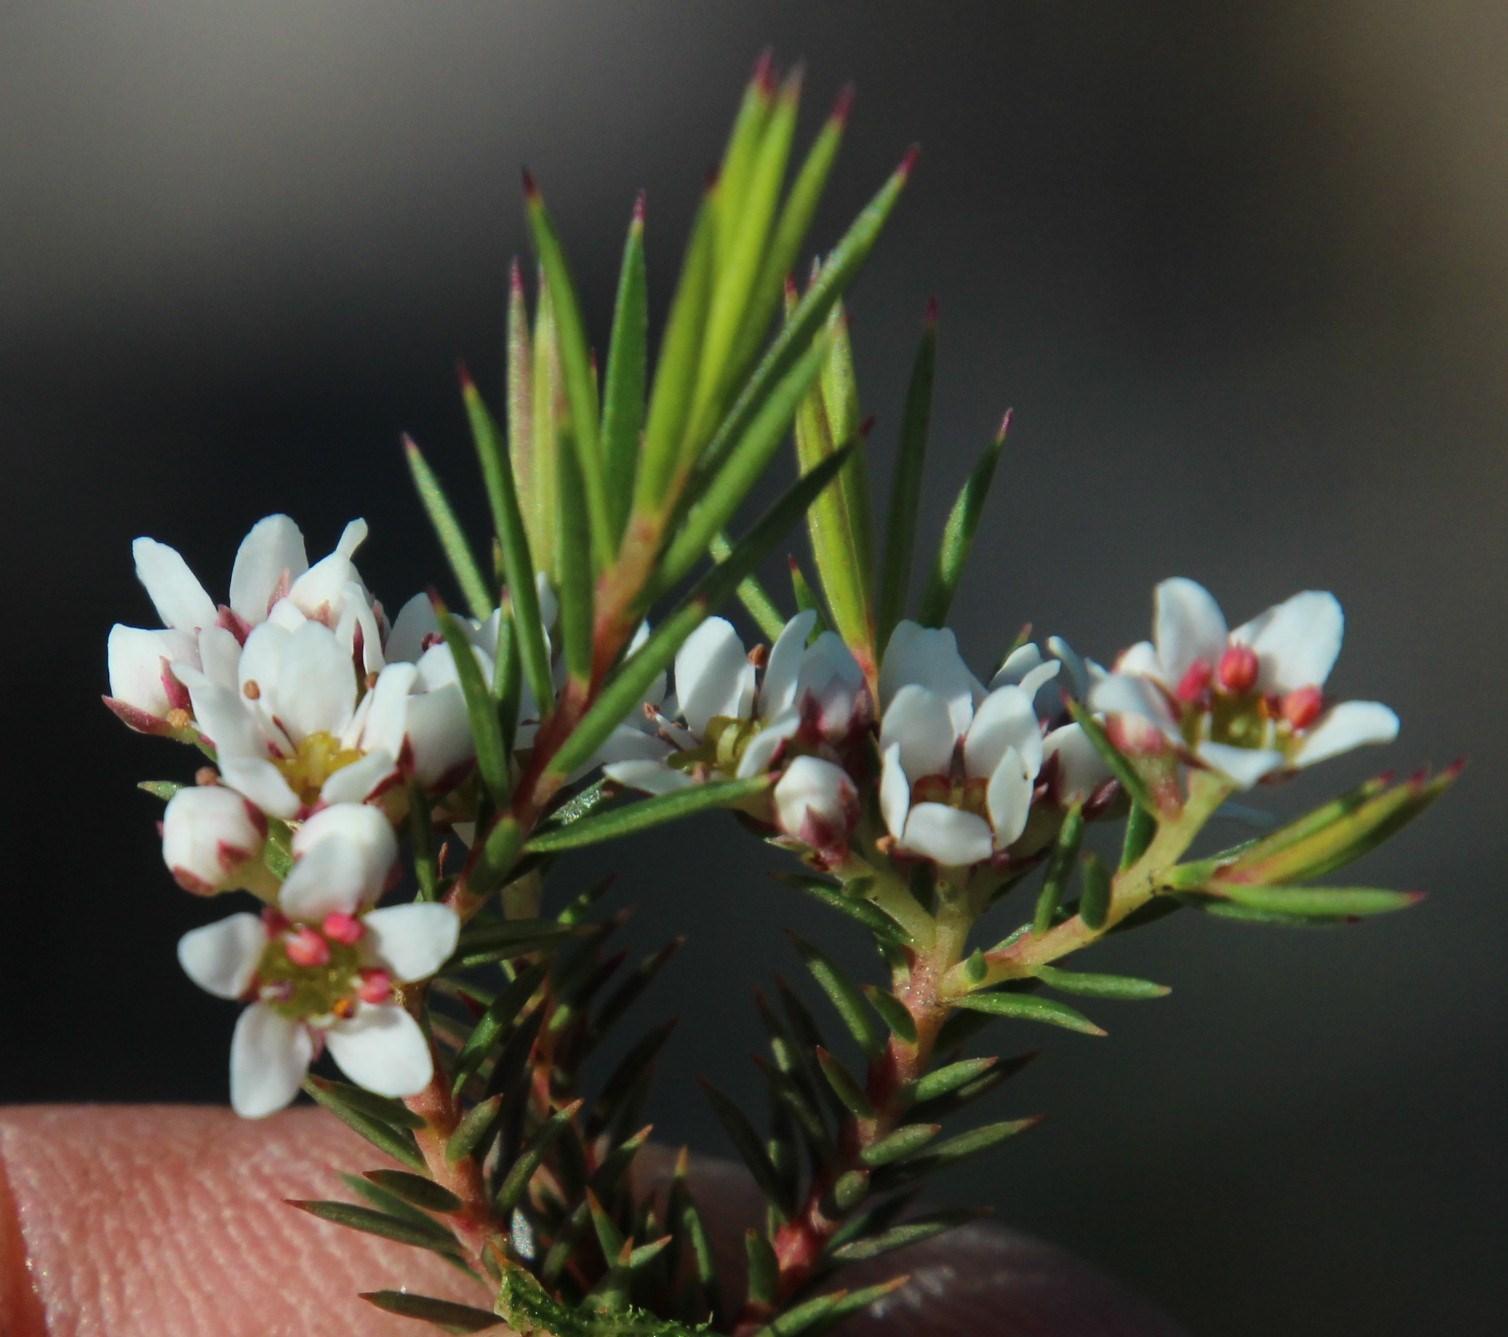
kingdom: Plantae
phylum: Tracheophyta
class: Magnoliopsida
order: Sapindales
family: Rutaceae
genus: Diosma
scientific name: Diosma hirsuta
